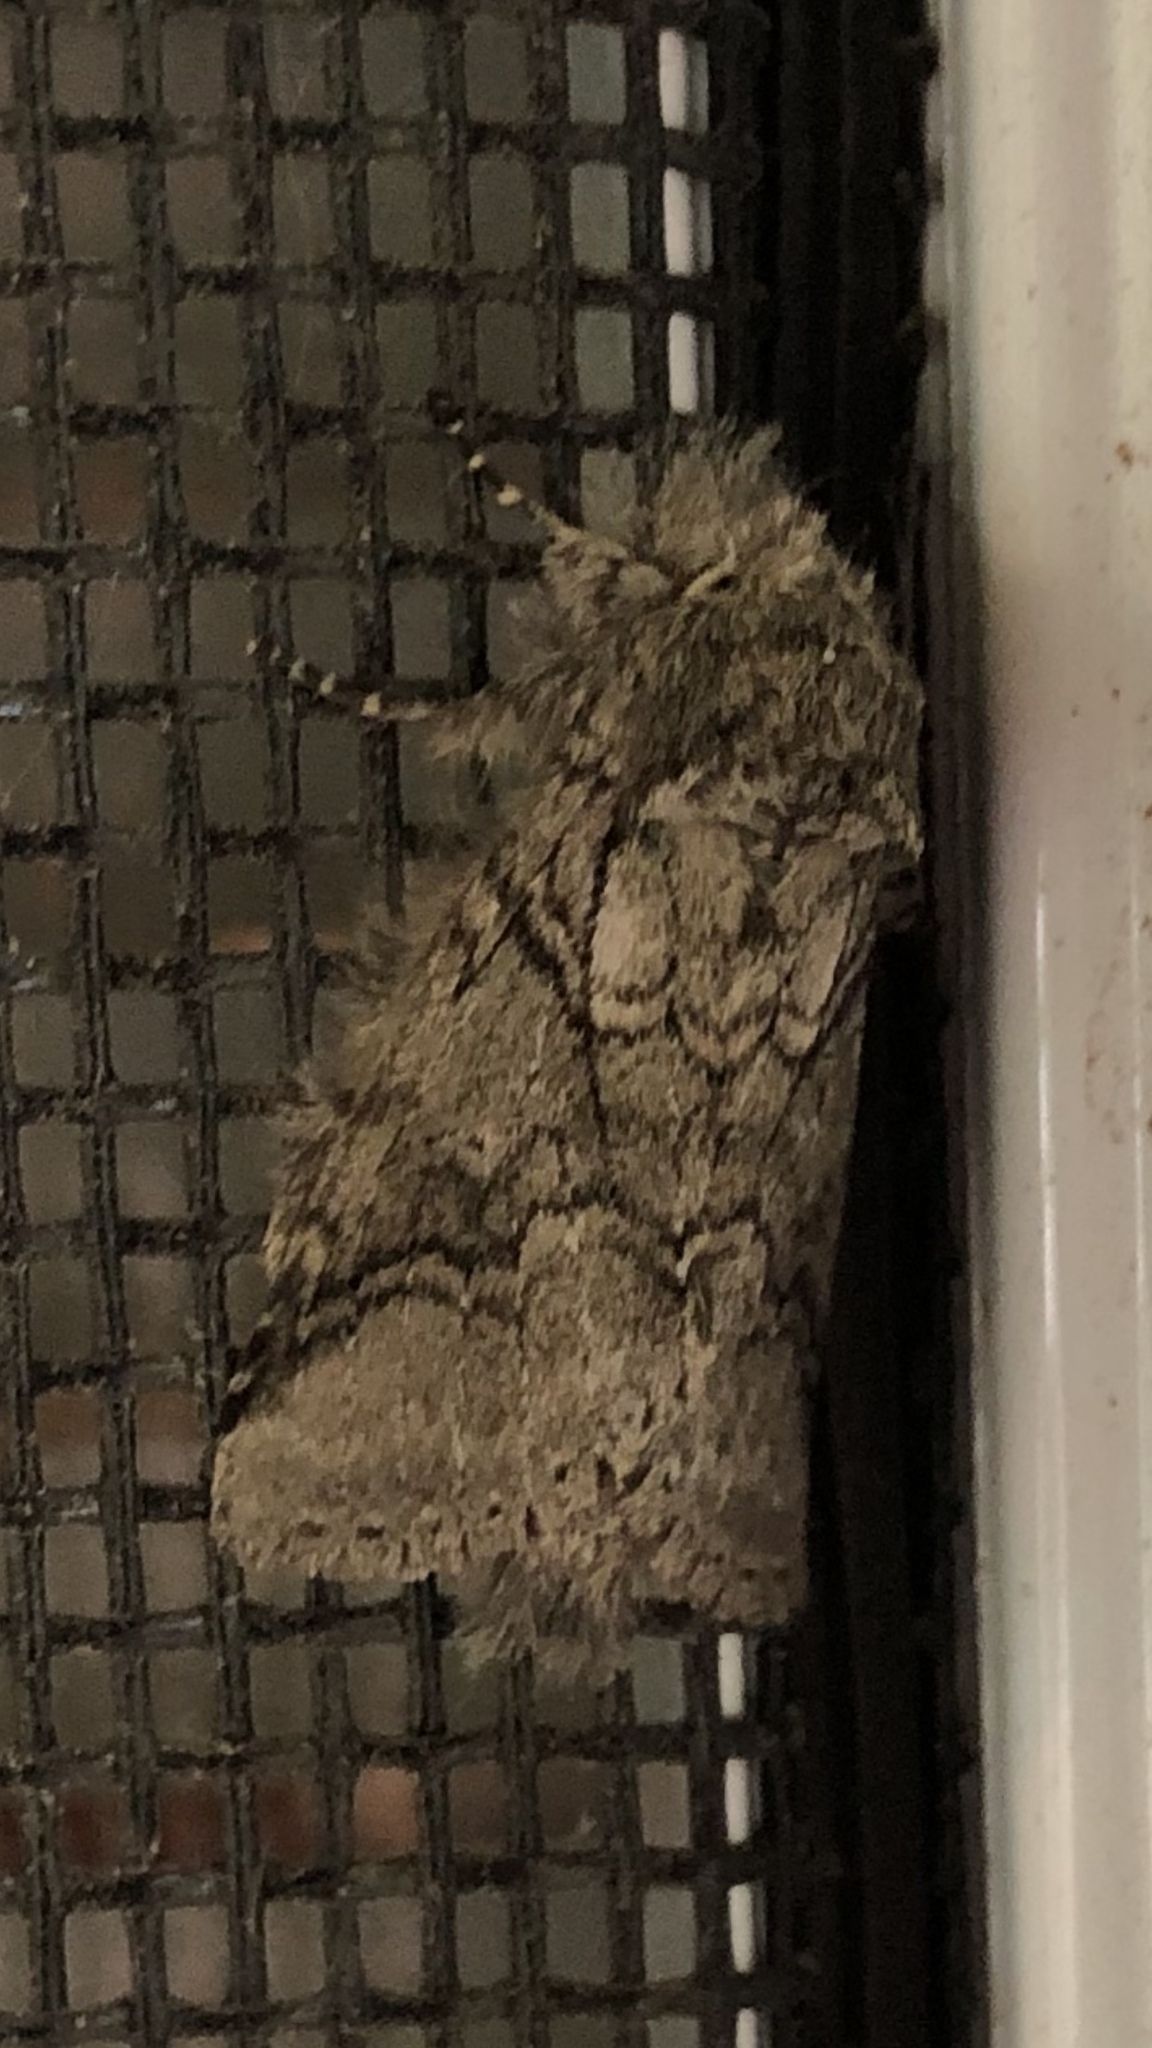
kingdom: Animalia
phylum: Arthropoda
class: Insecta
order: Lepidoptera
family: Notodontidae
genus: Lochmaeus
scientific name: Lochmaeus bilineata
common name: Double-lined prominent
